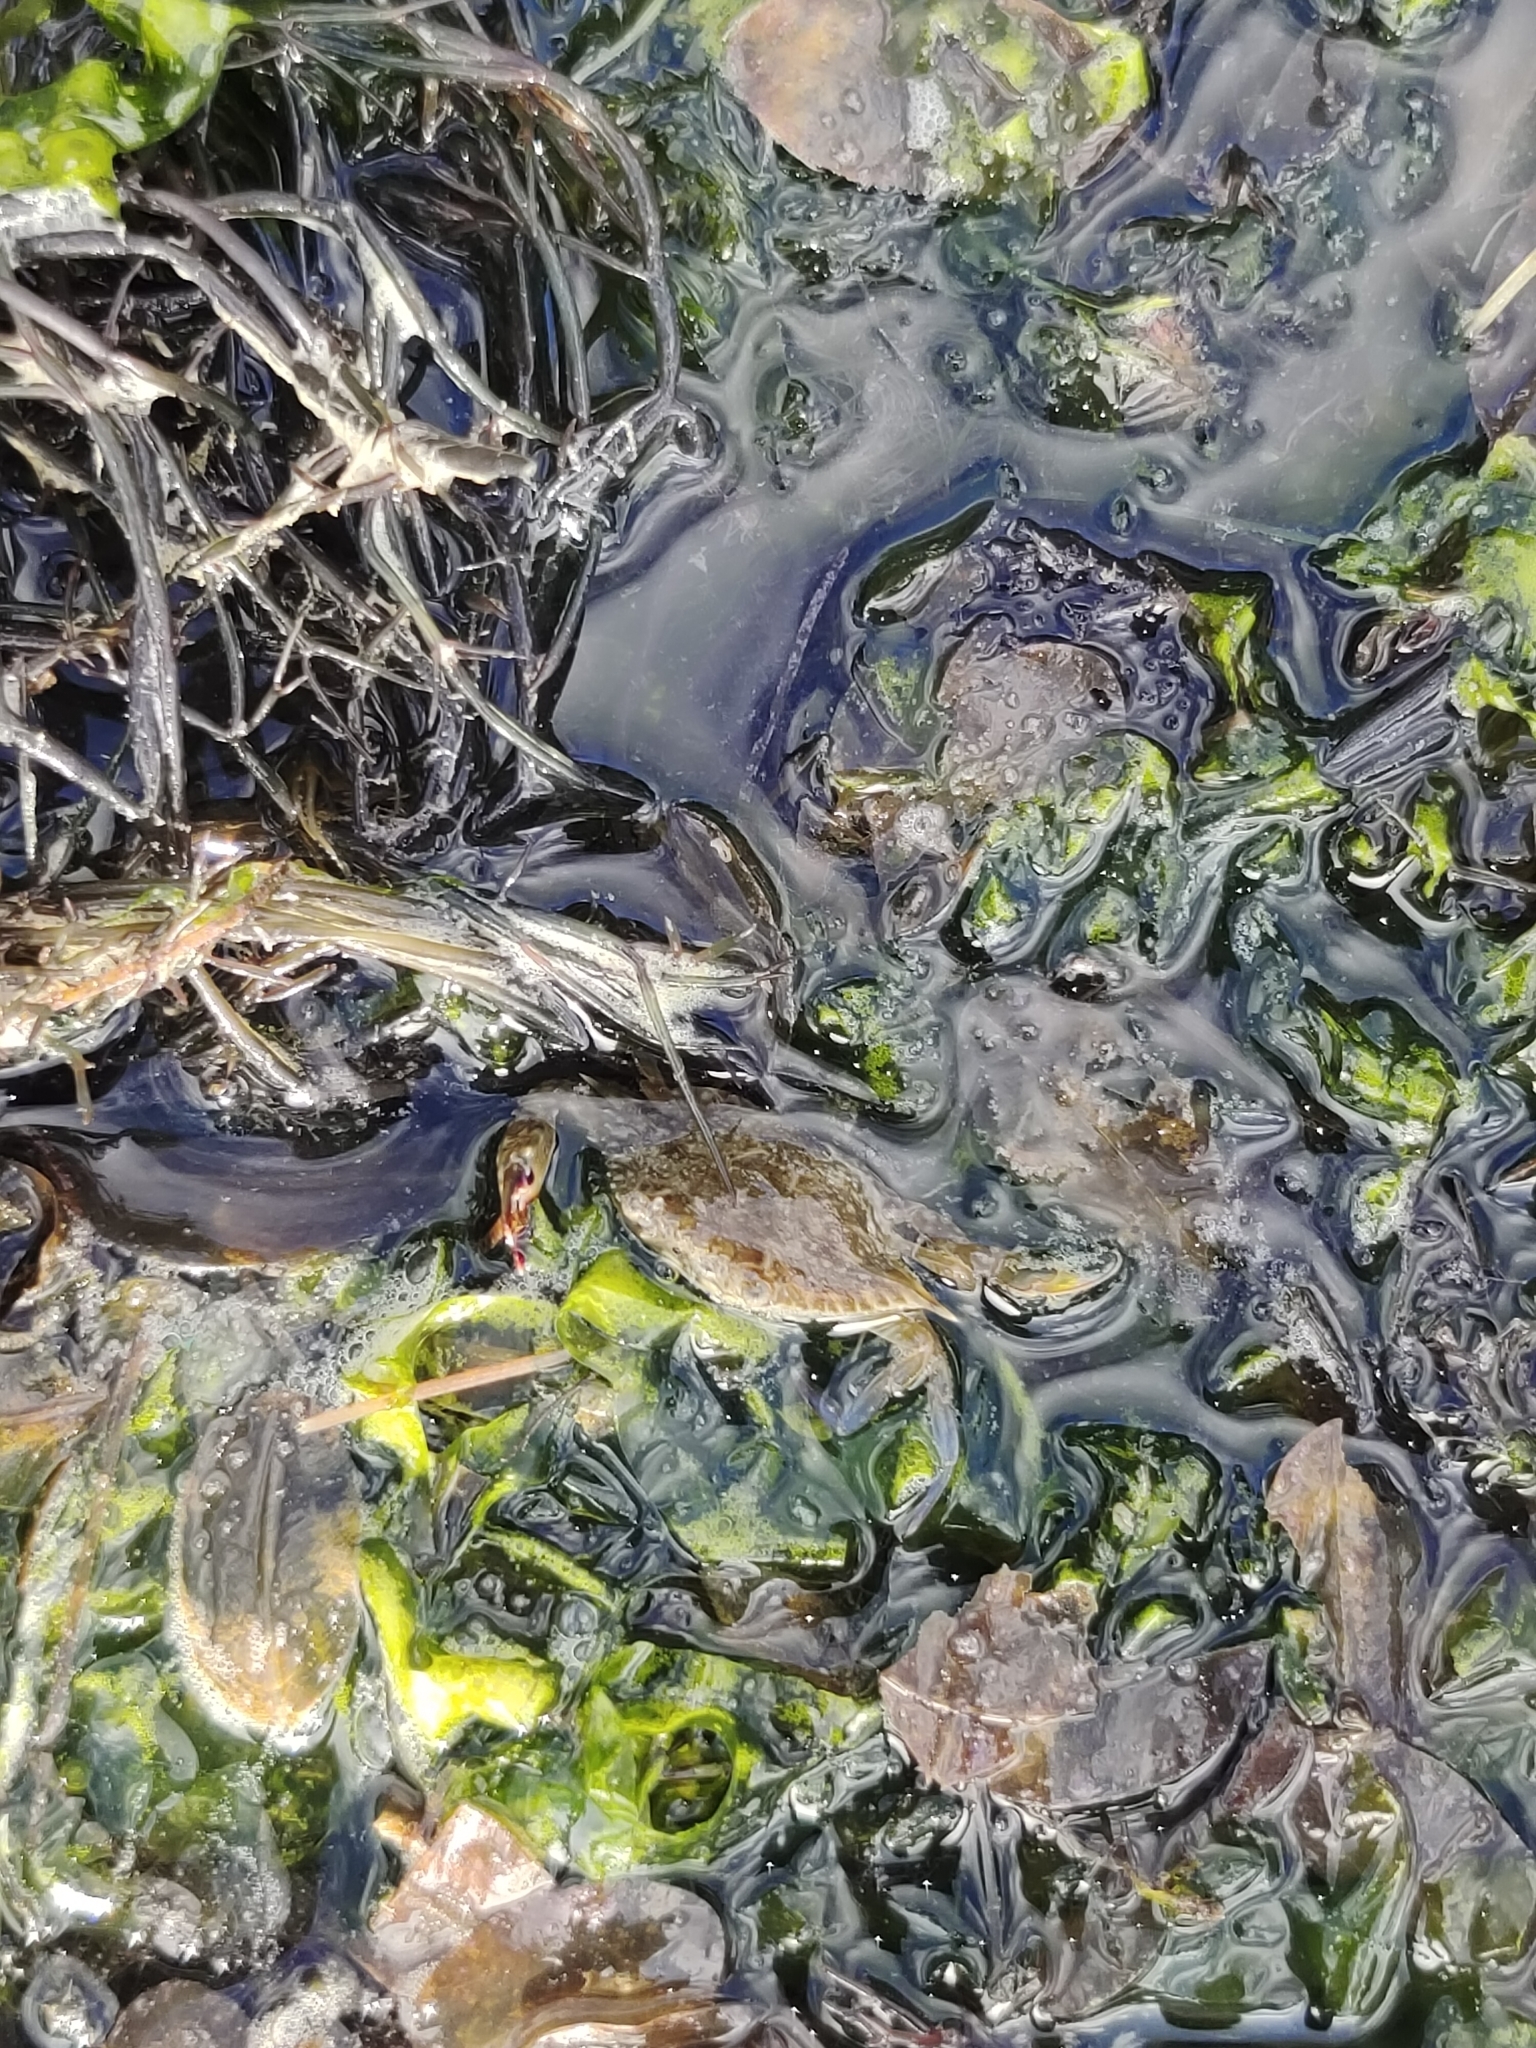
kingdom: Animalia
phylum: Arthropoda
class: Malacostraca
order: Decapoda
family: Portunidae
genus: Portunus
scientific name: Portunus pelagicus
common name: Blue swimming crab
